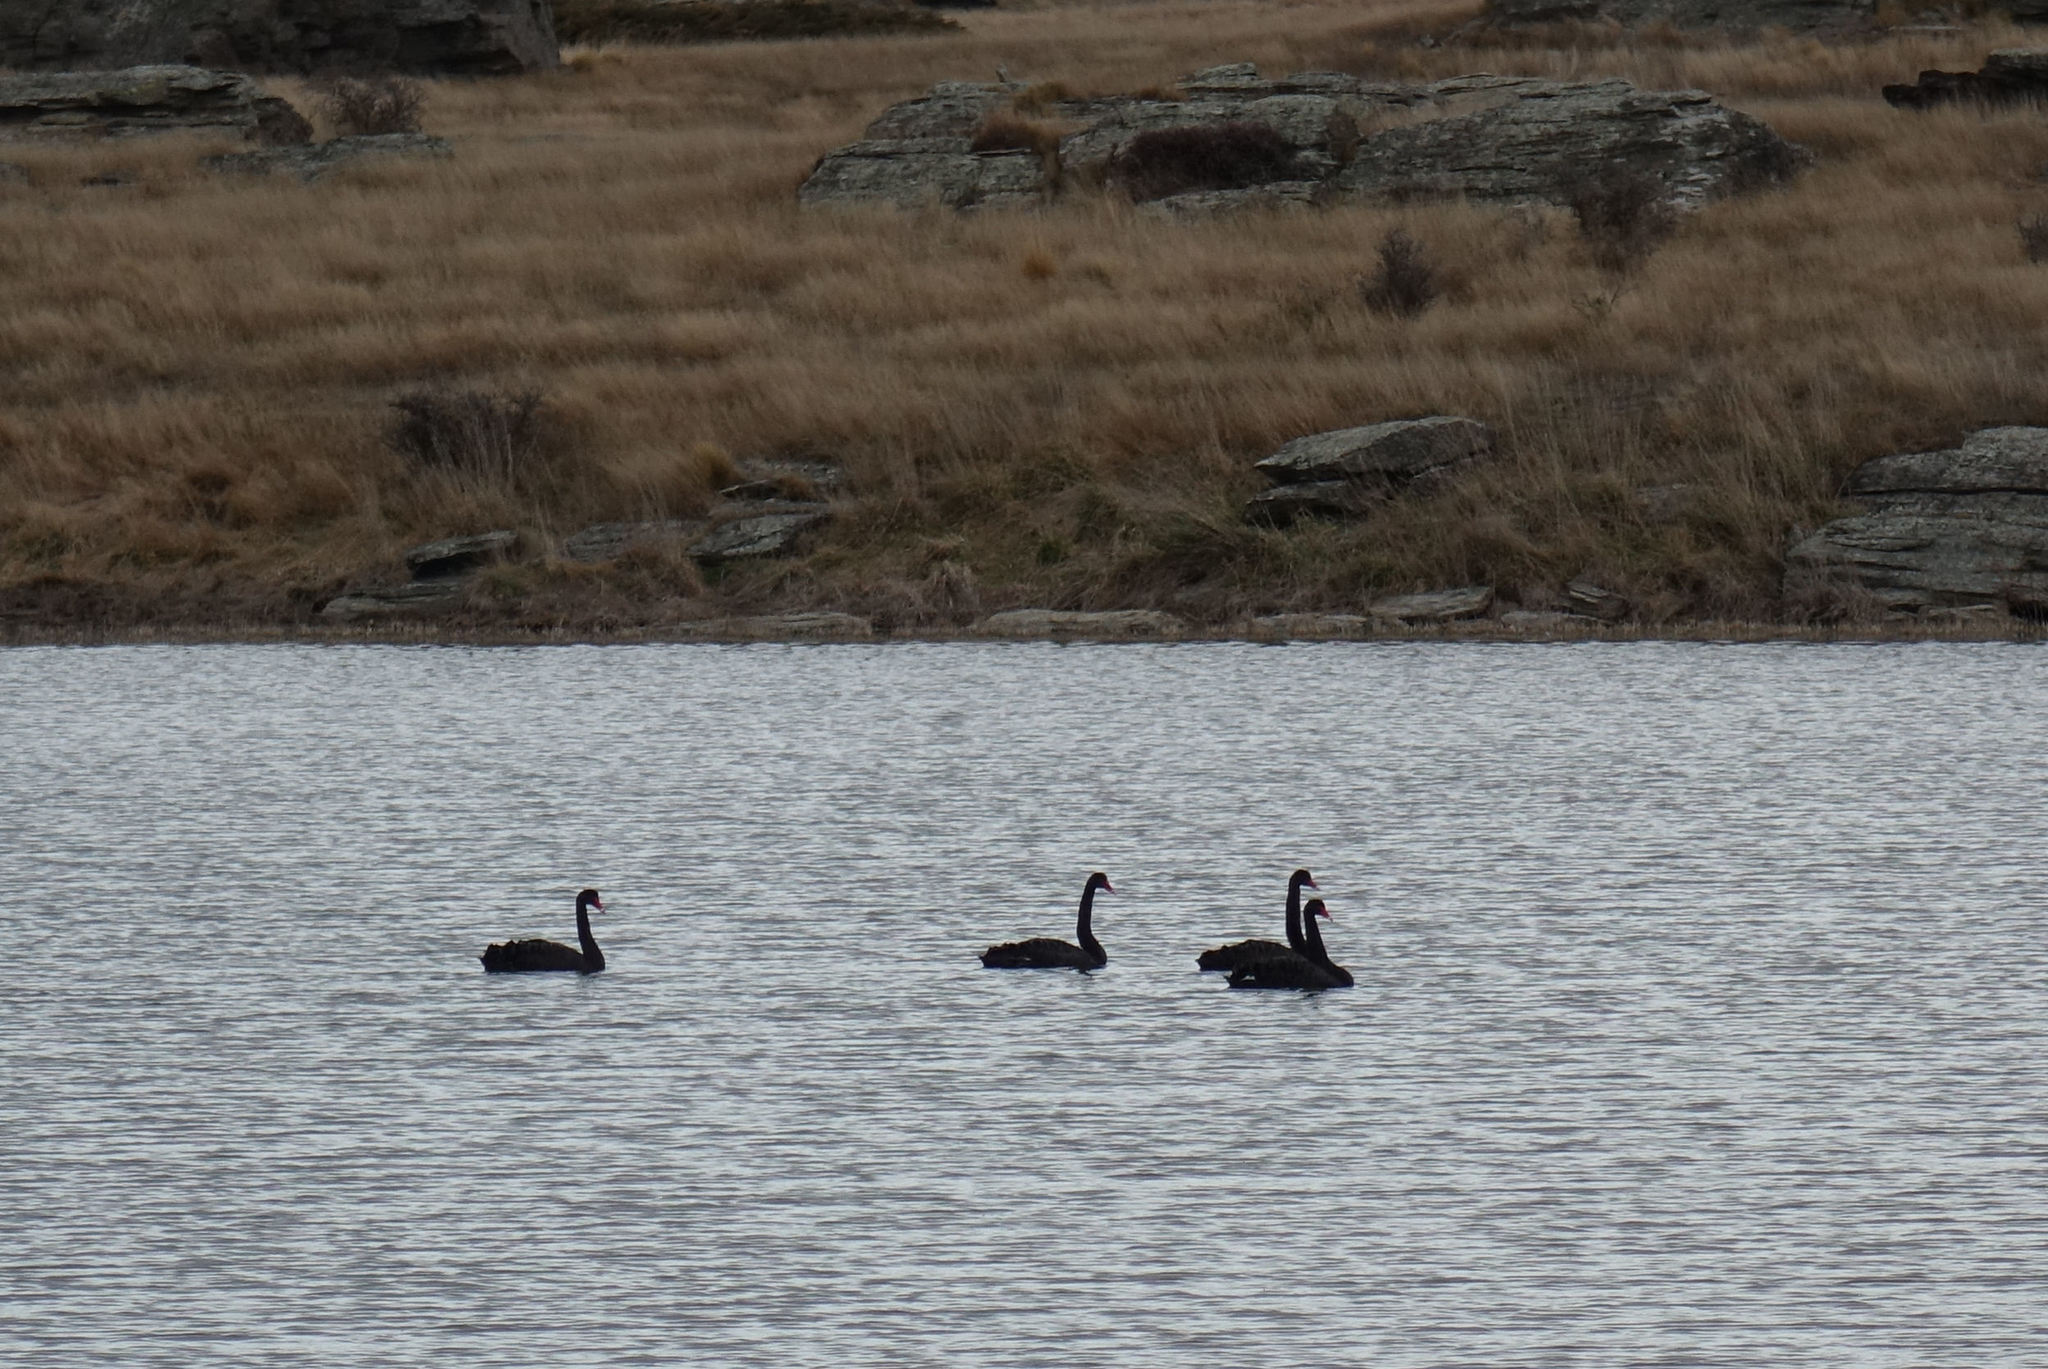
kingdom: Animalia
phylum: Chordata
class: Aves
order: Anseriformes
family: Anatidae
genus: Cygnus
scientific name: Cygnus atratus
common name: Black swan
